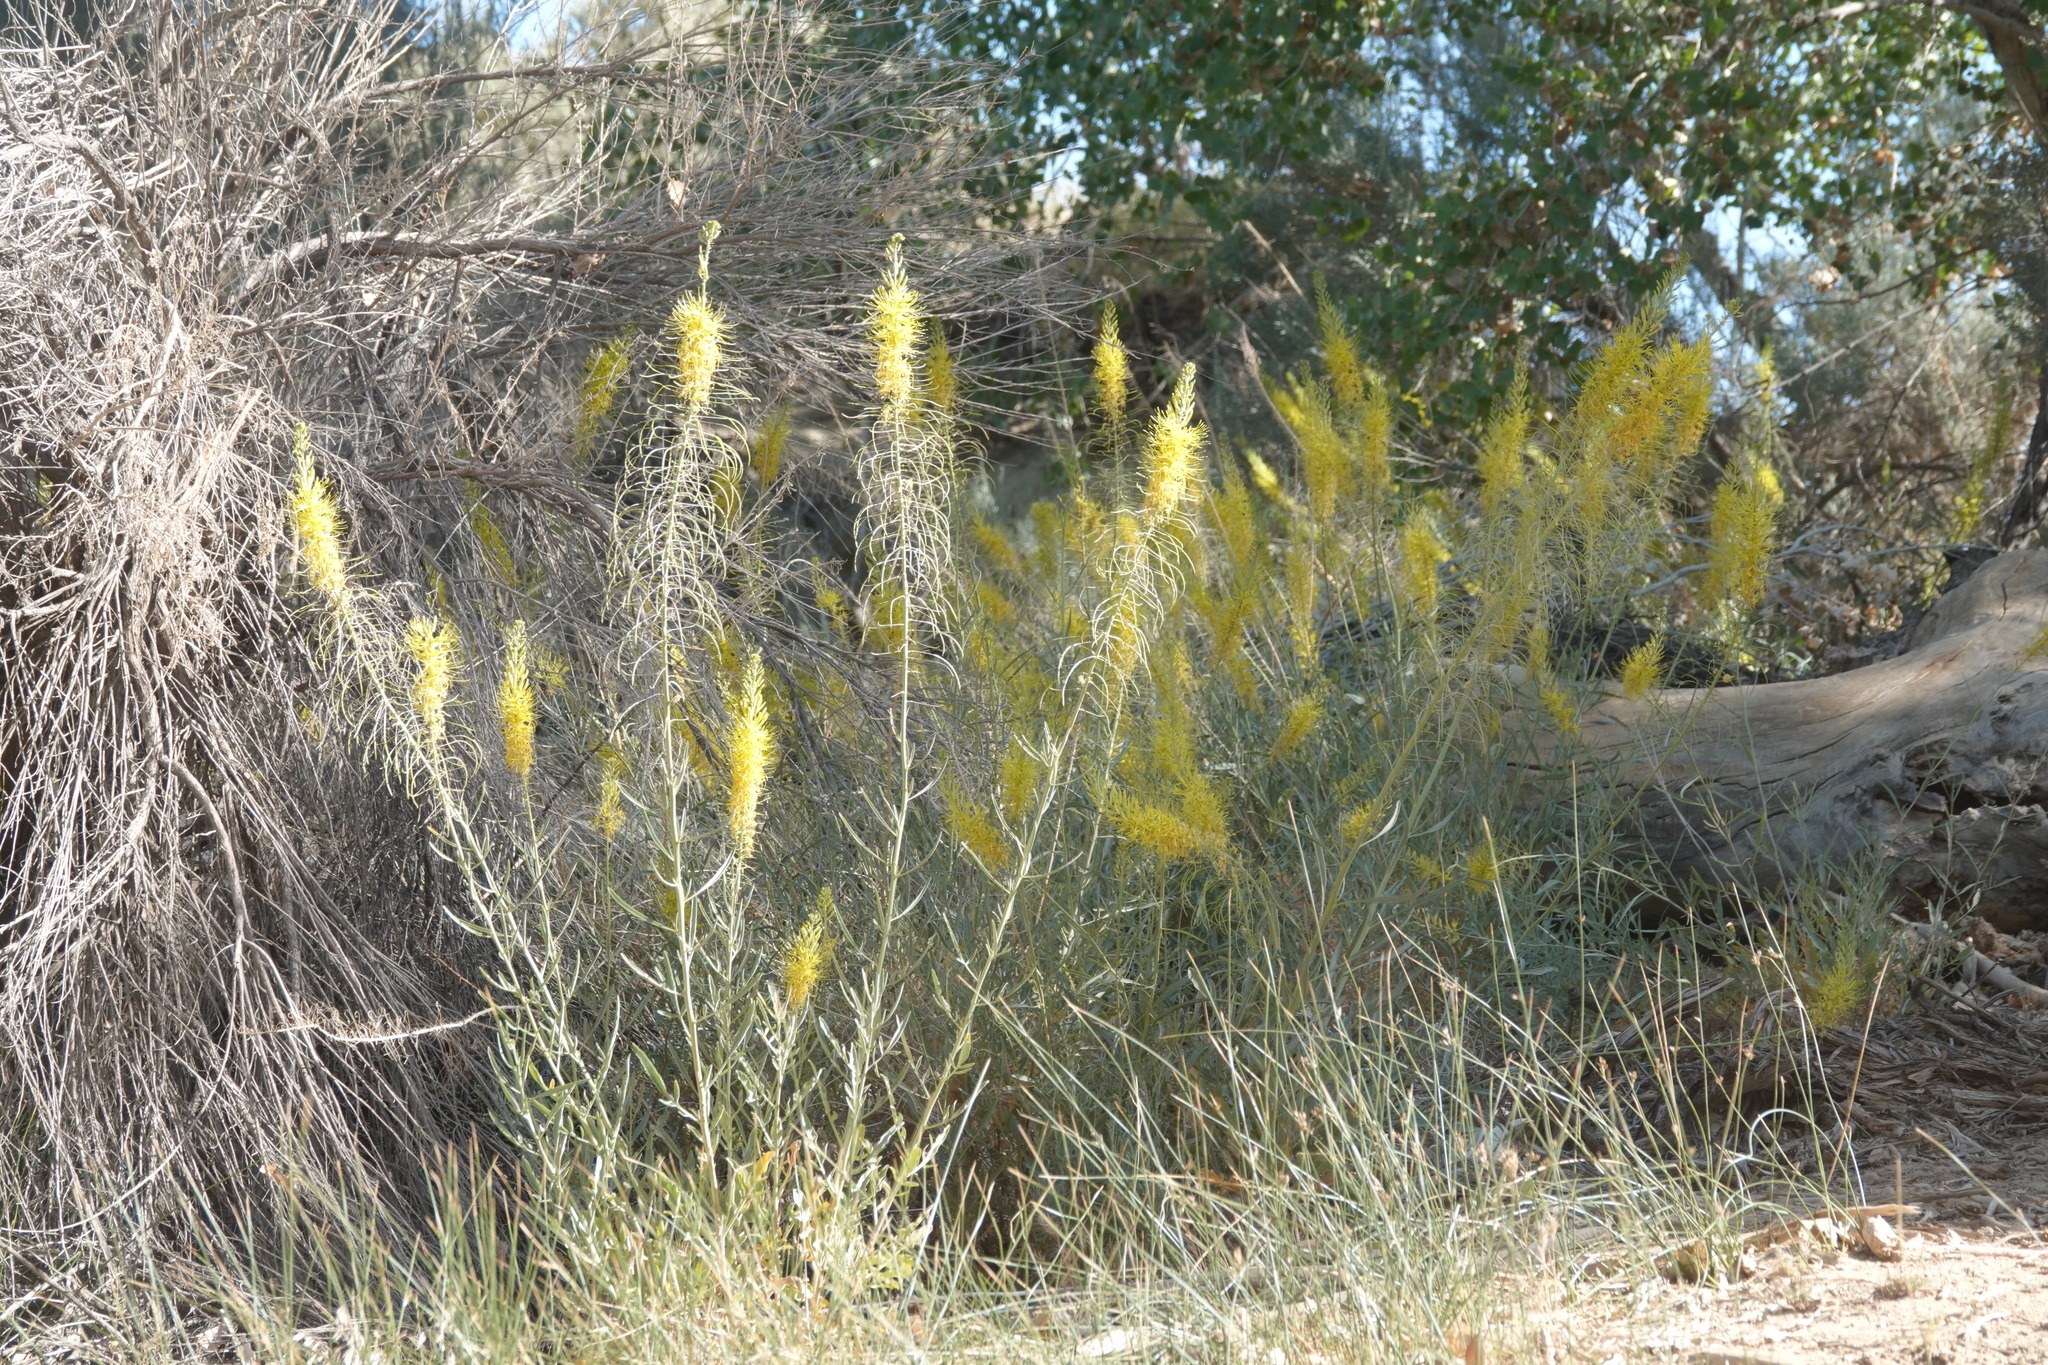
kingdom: Plantae
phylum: Tracheophyta
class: Magnoliopsida
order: Brassicales
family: Brassicaceae
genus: Stanleya
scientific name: Stanleya pinnata
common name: Prince's-plume
